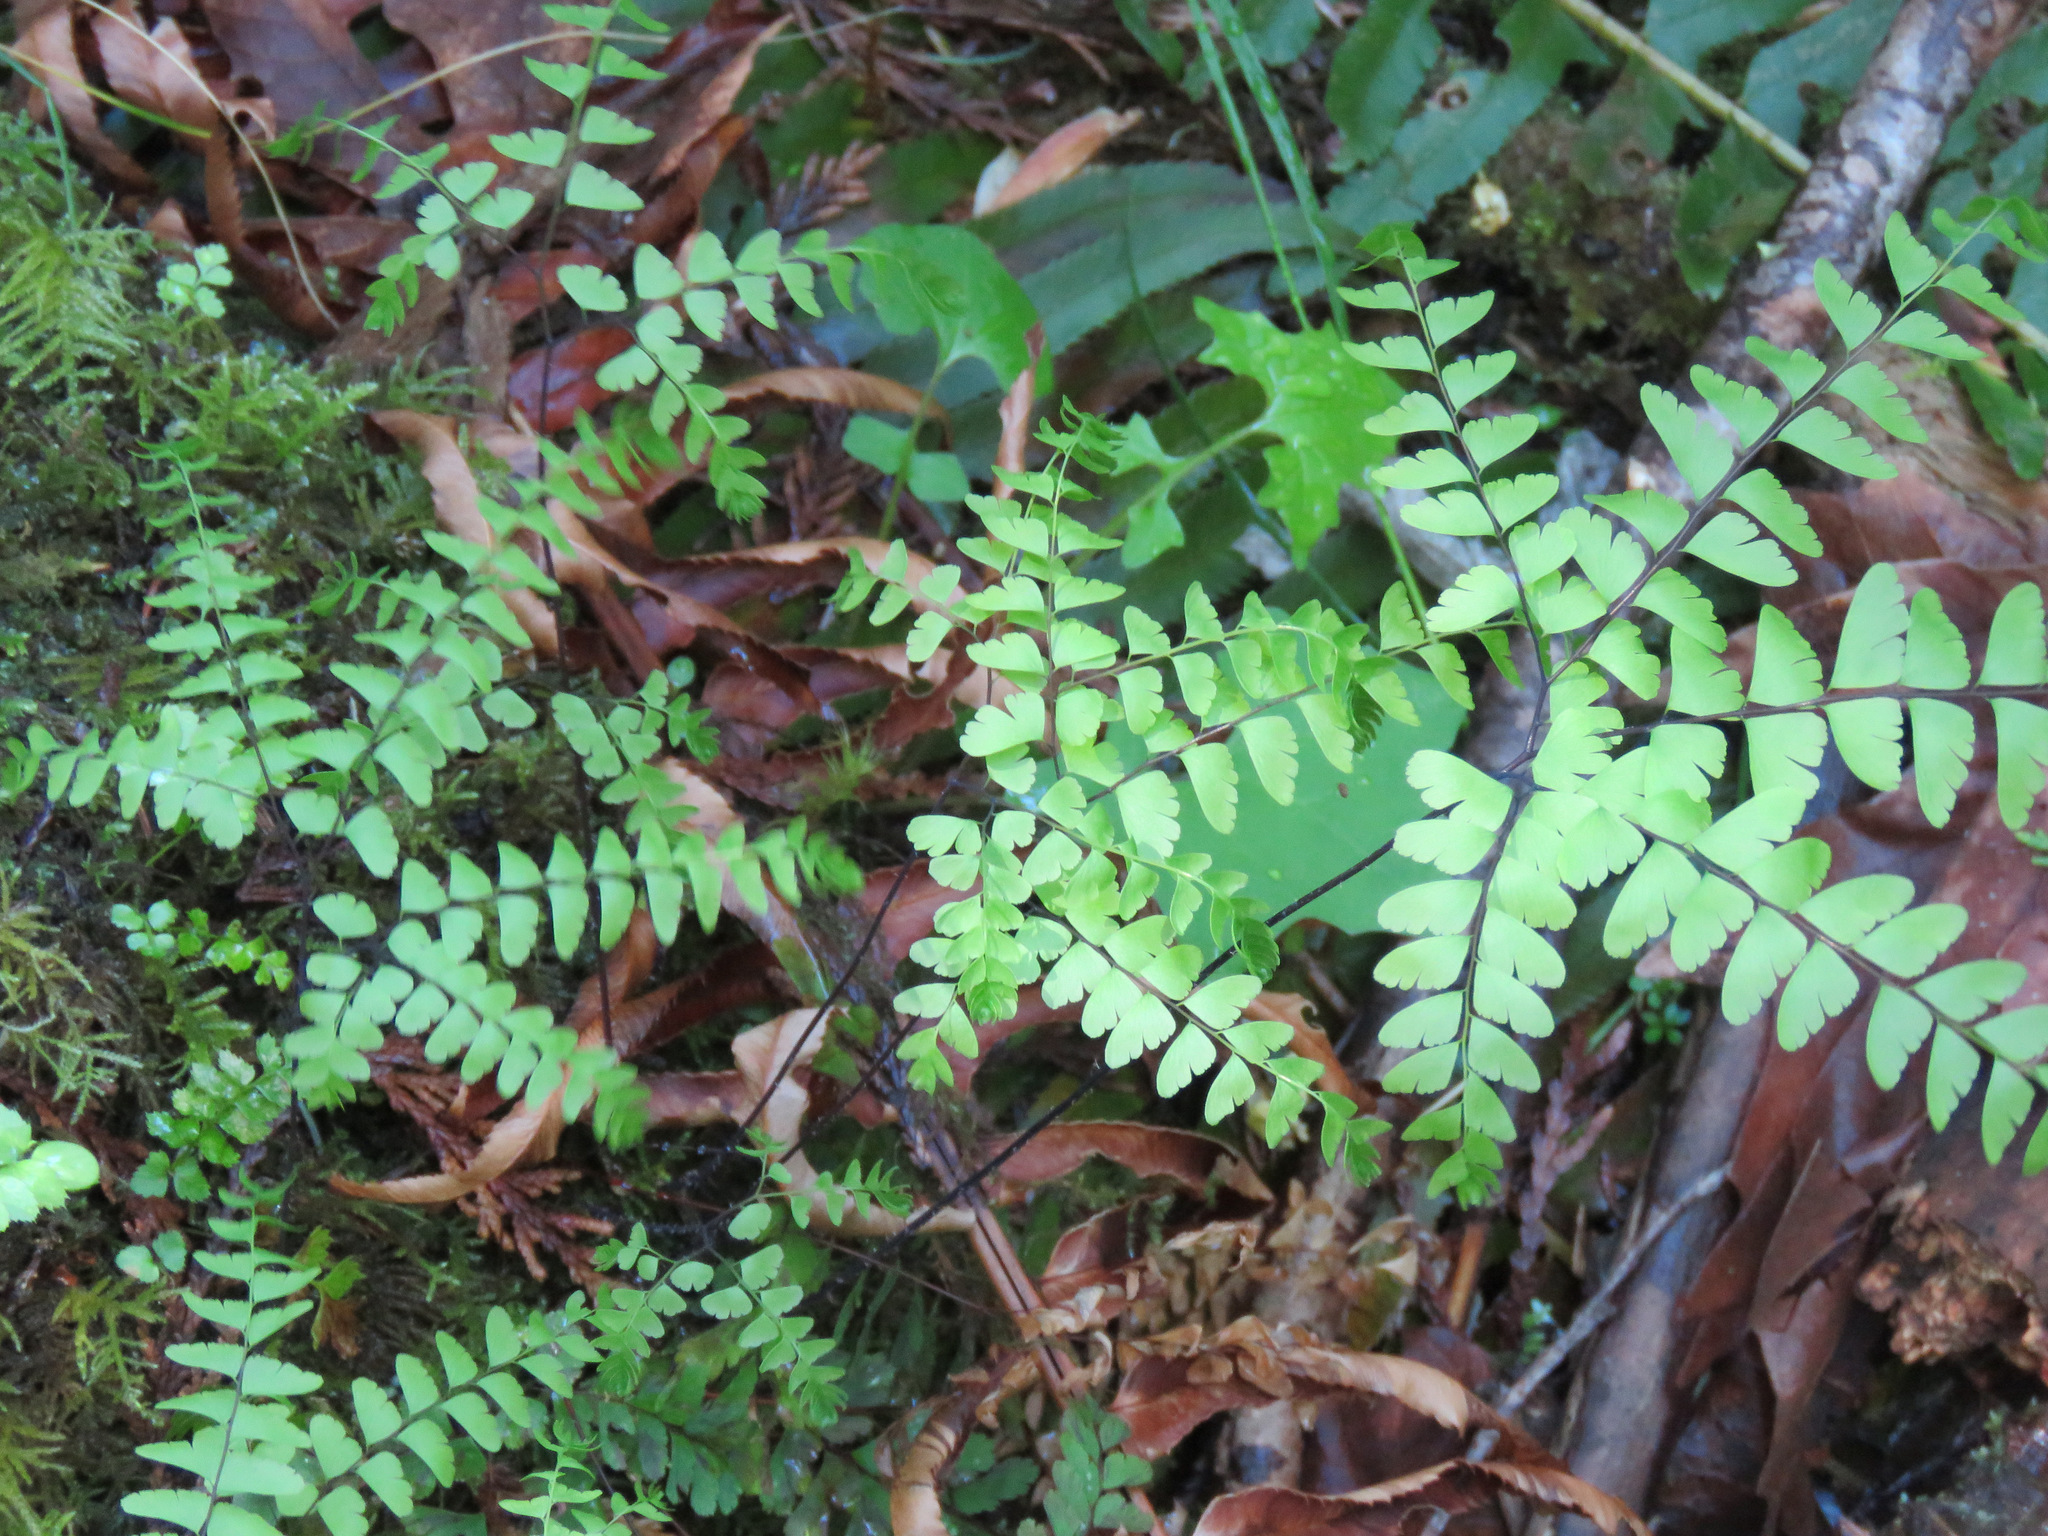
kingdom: Plantae
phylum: Tracheophyta
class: Polypodiopsida
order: Polypodiales
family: Pteridaceae
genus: Adiantum
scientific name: Adiantum aleuticum
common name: Aleutian maidenhair fern
